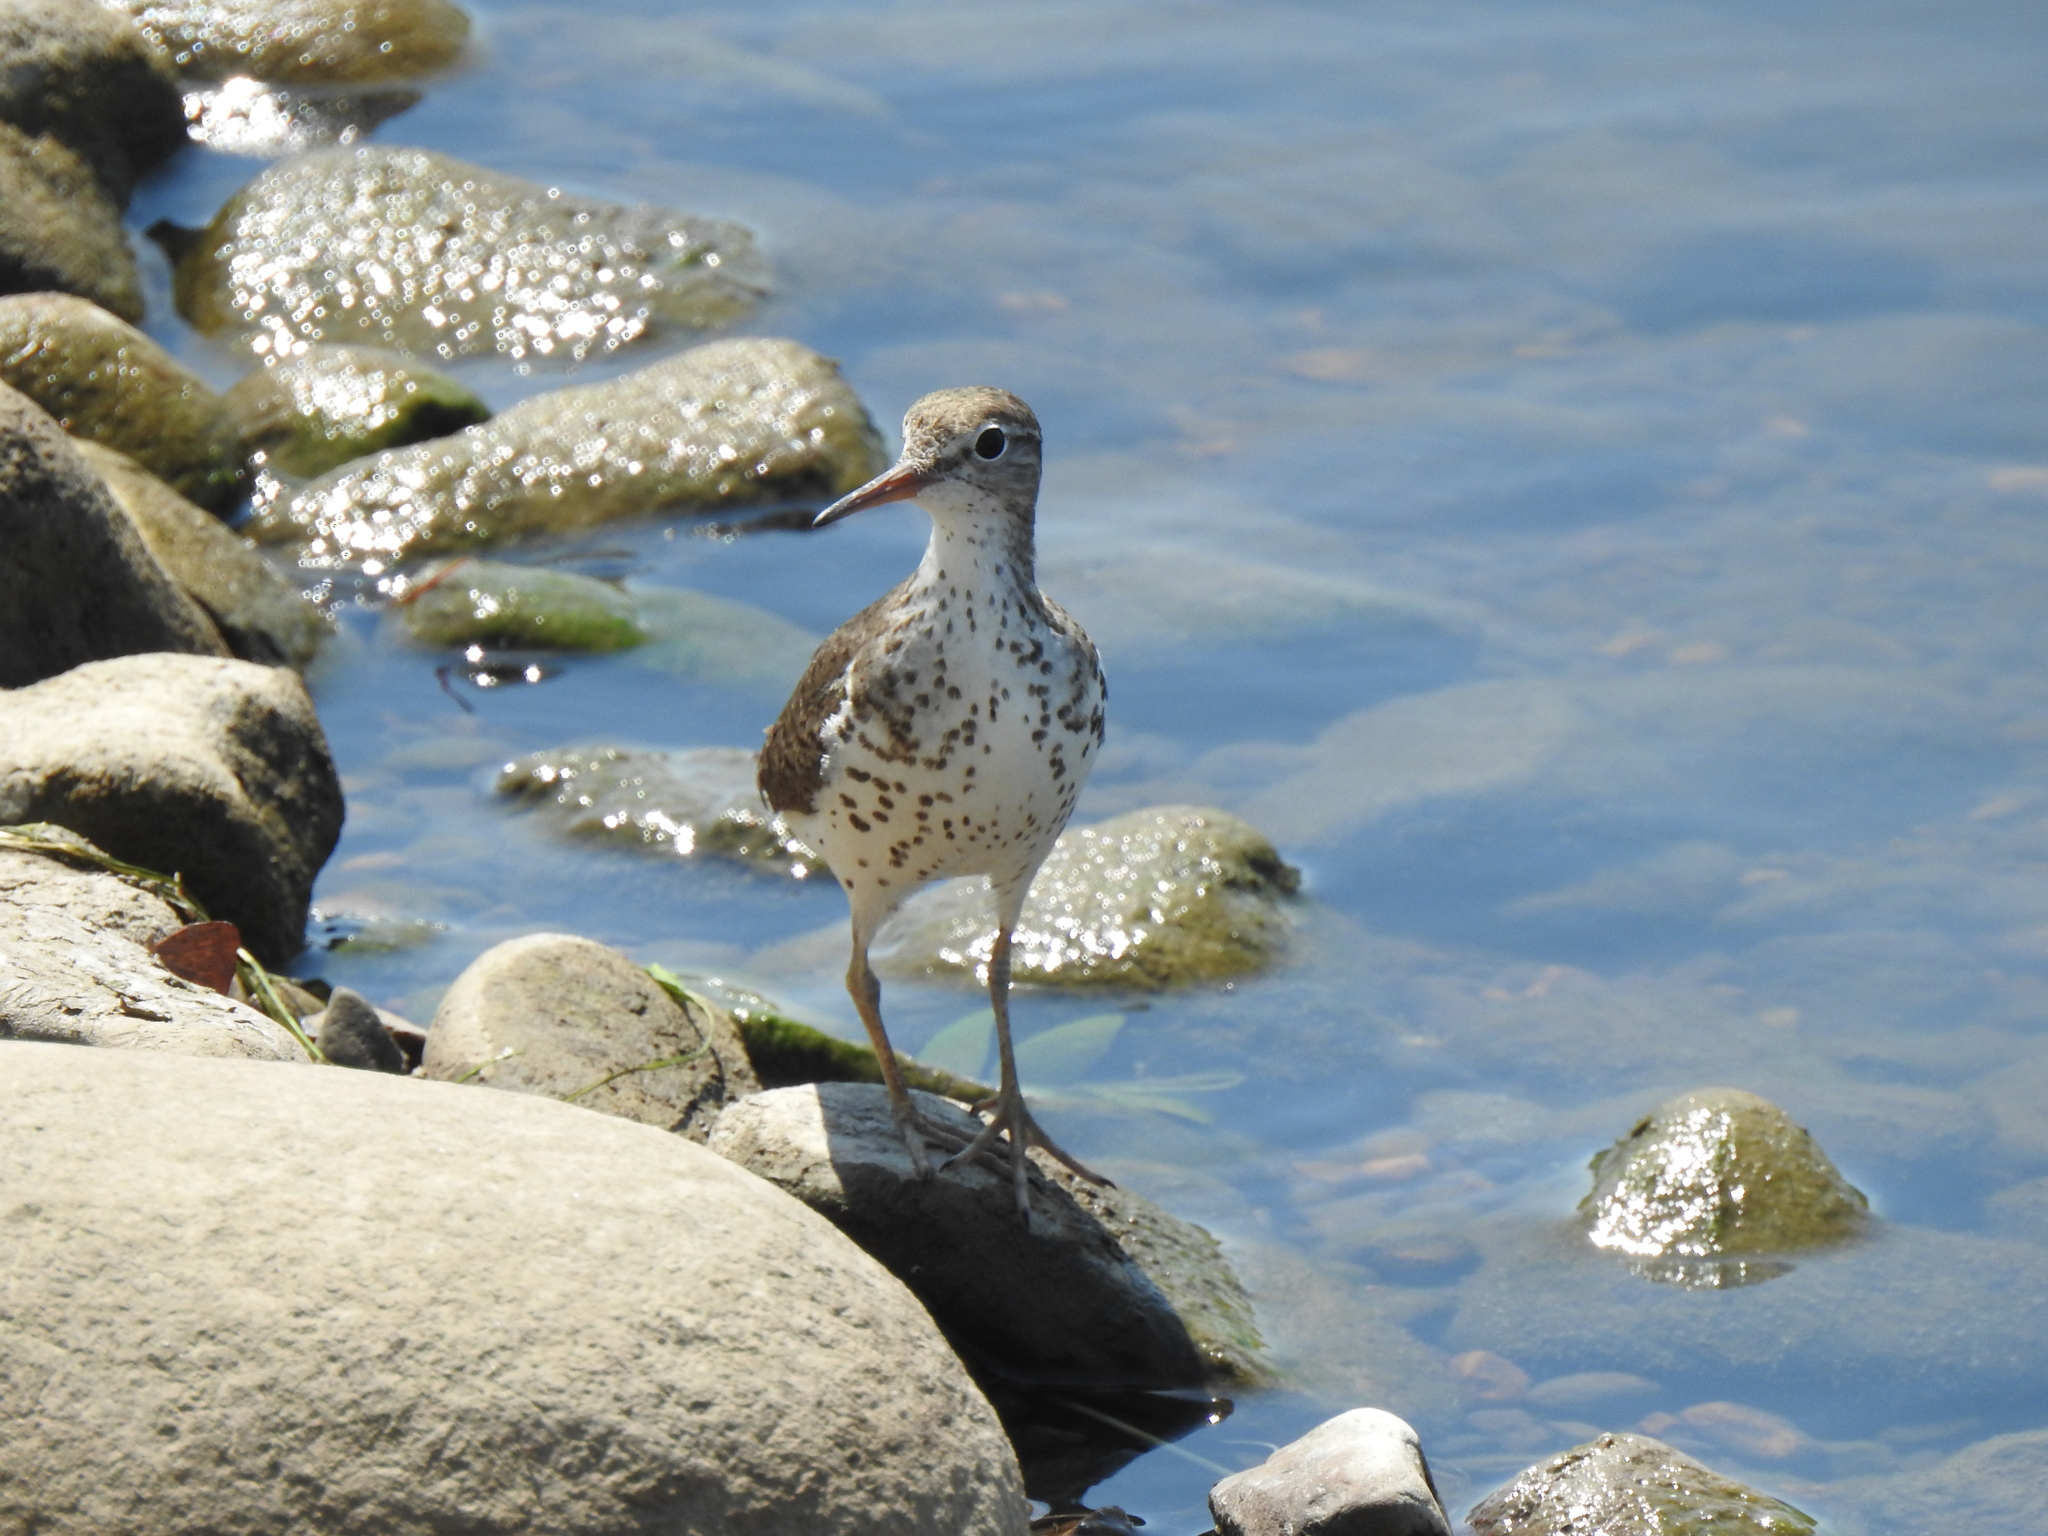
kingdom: Animalia
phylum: Chordata
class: Aves
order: Charadriiformes
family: Scolopacidae
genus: Actitis
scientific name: Actitis macularius
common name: Spotted sandpiper
